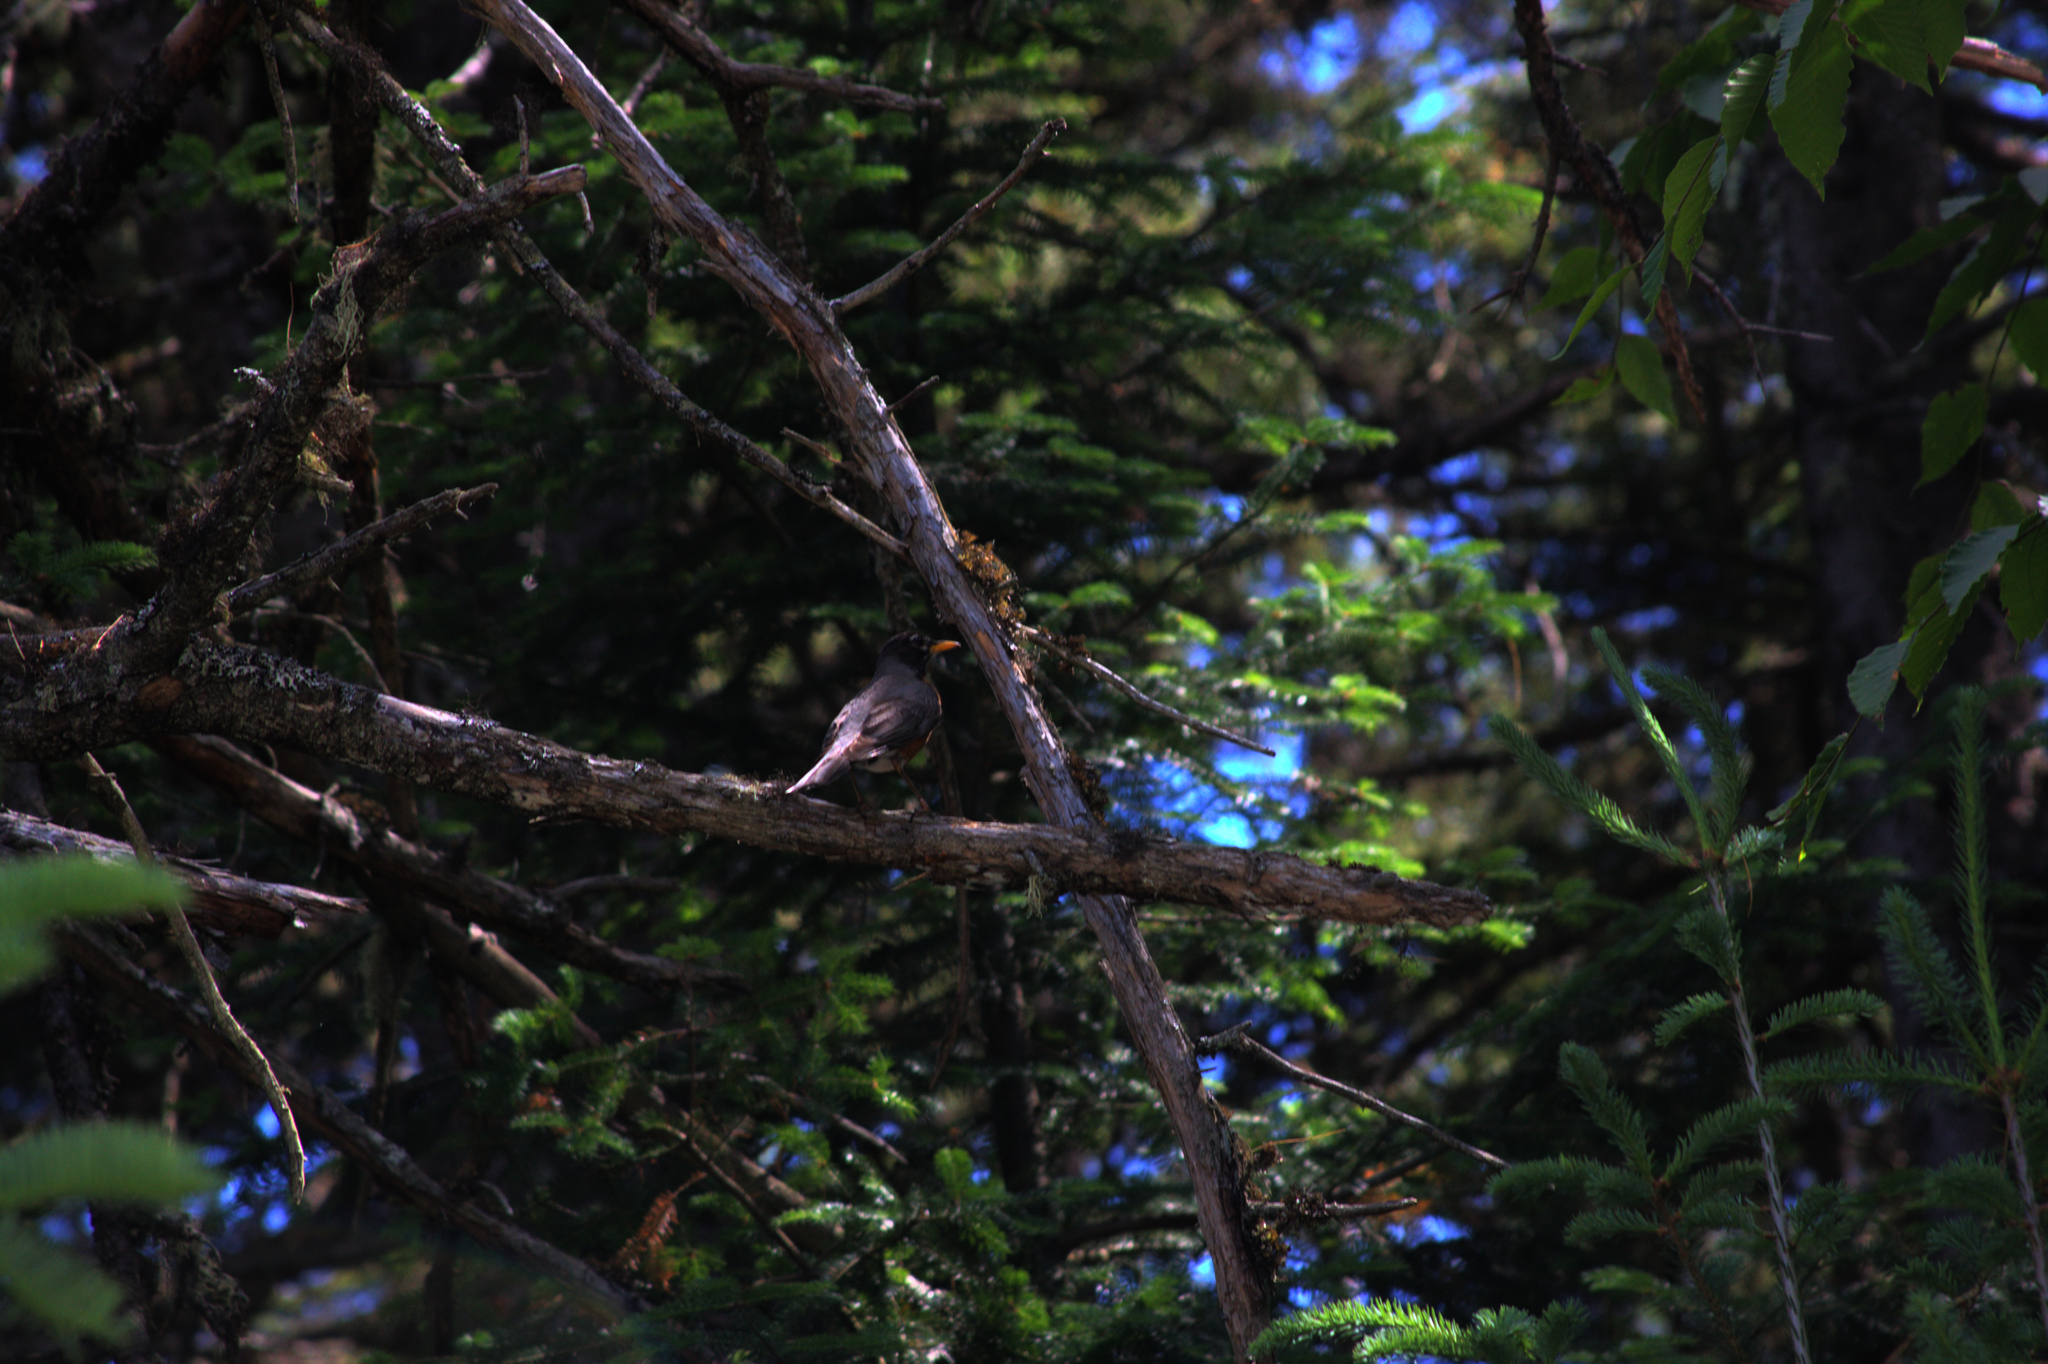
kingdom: Animalia
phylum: Chordata
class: Aves
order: Passeriformes
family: Turdidae
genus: Turdus
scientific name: Turdus migratorius
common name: American robin
